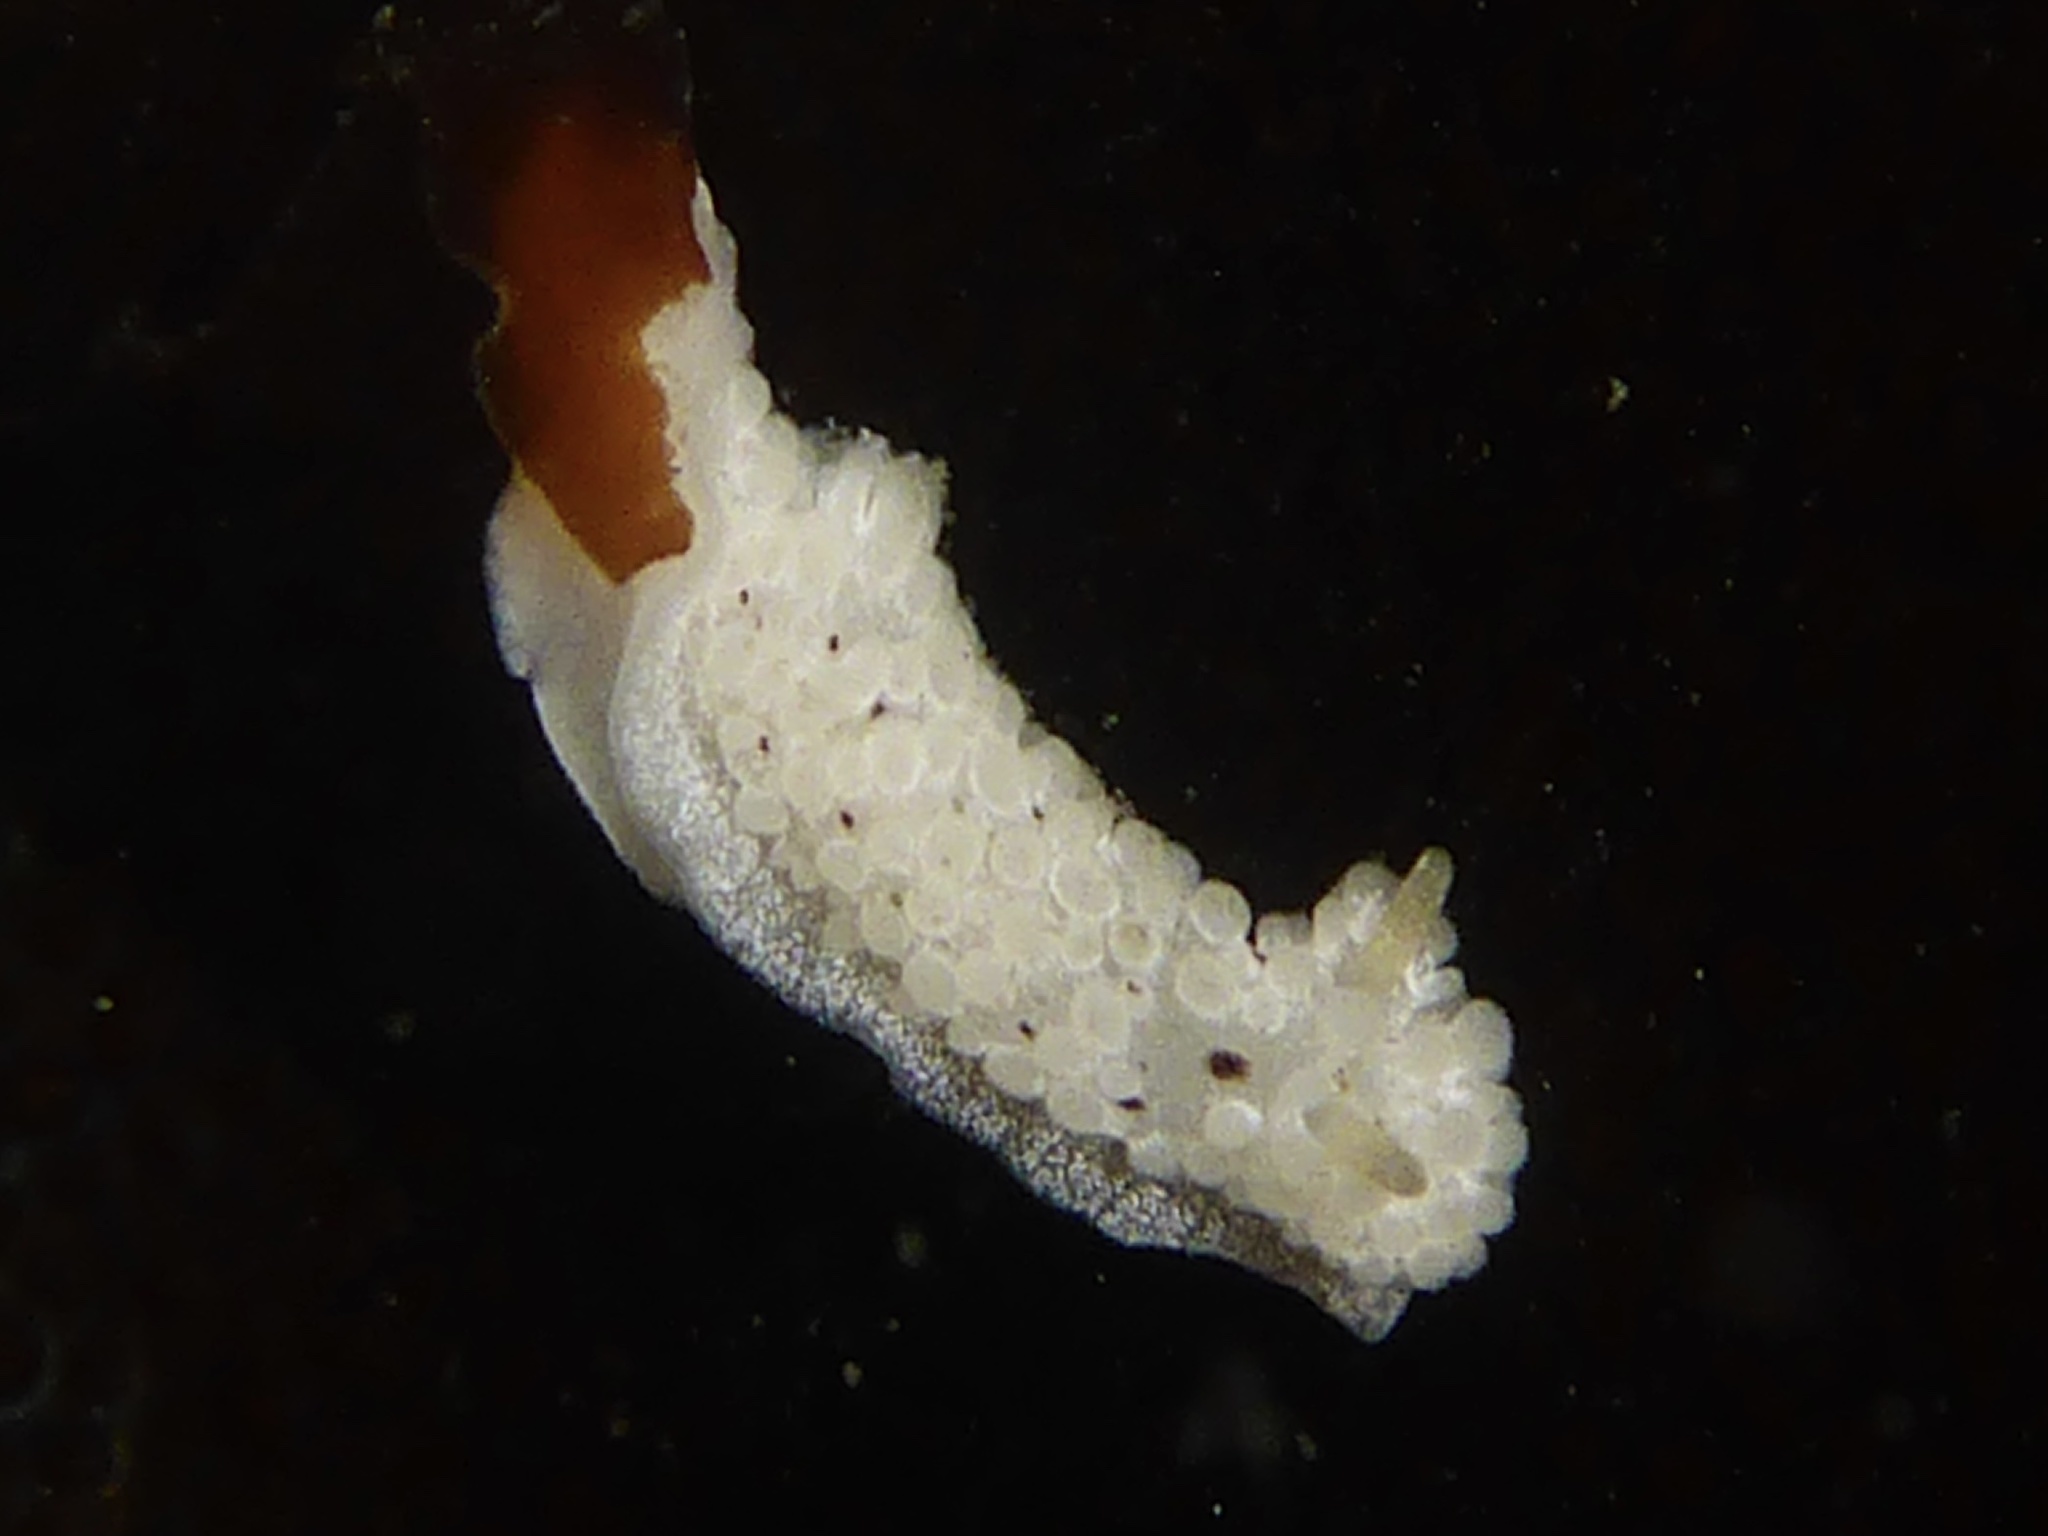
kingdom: Animalia
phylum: Mollusca
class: Gastropoda
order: Nudibranchia
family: Aegiridae
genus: Aegires
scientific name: Aegires albopunctatus
